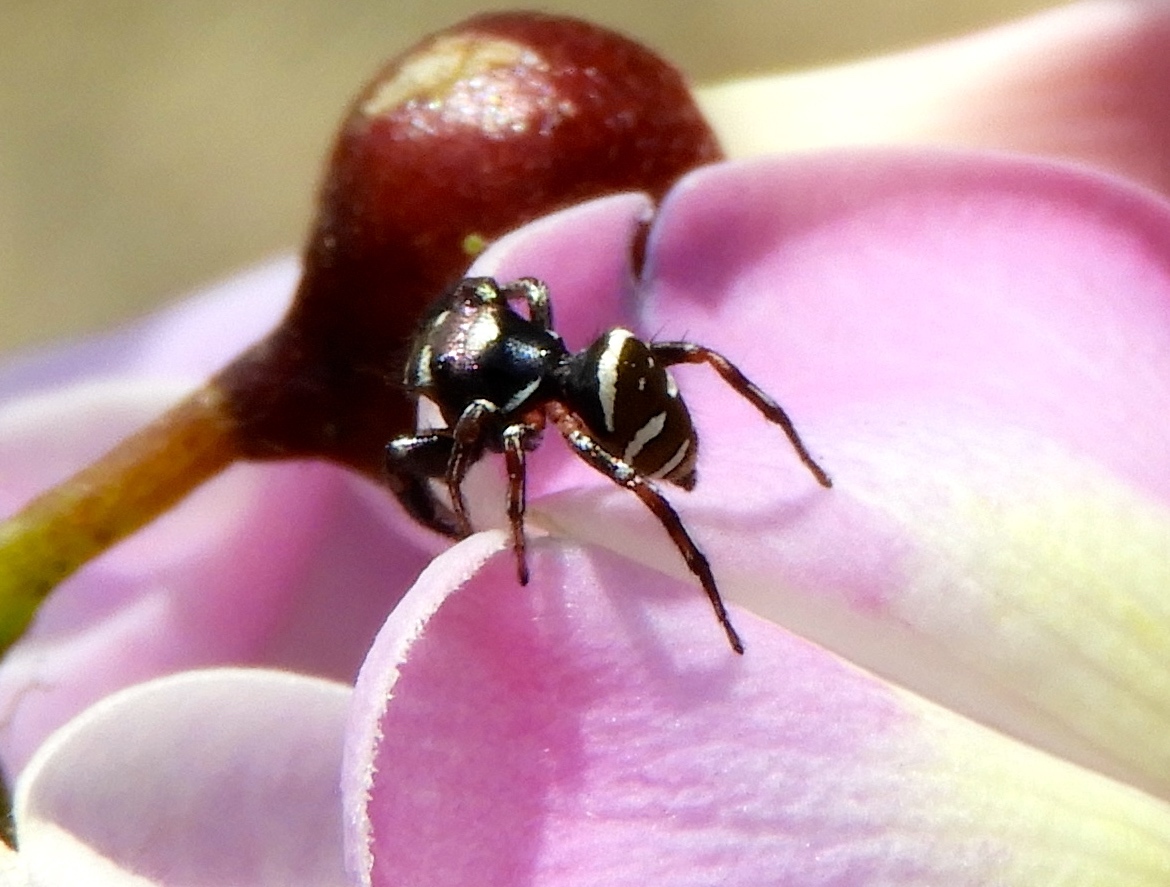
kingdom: Animalia
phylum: Arthropoda
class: Arachnida
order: Araneae
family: Salticidae
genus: Sassacus
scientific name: Sassacus
